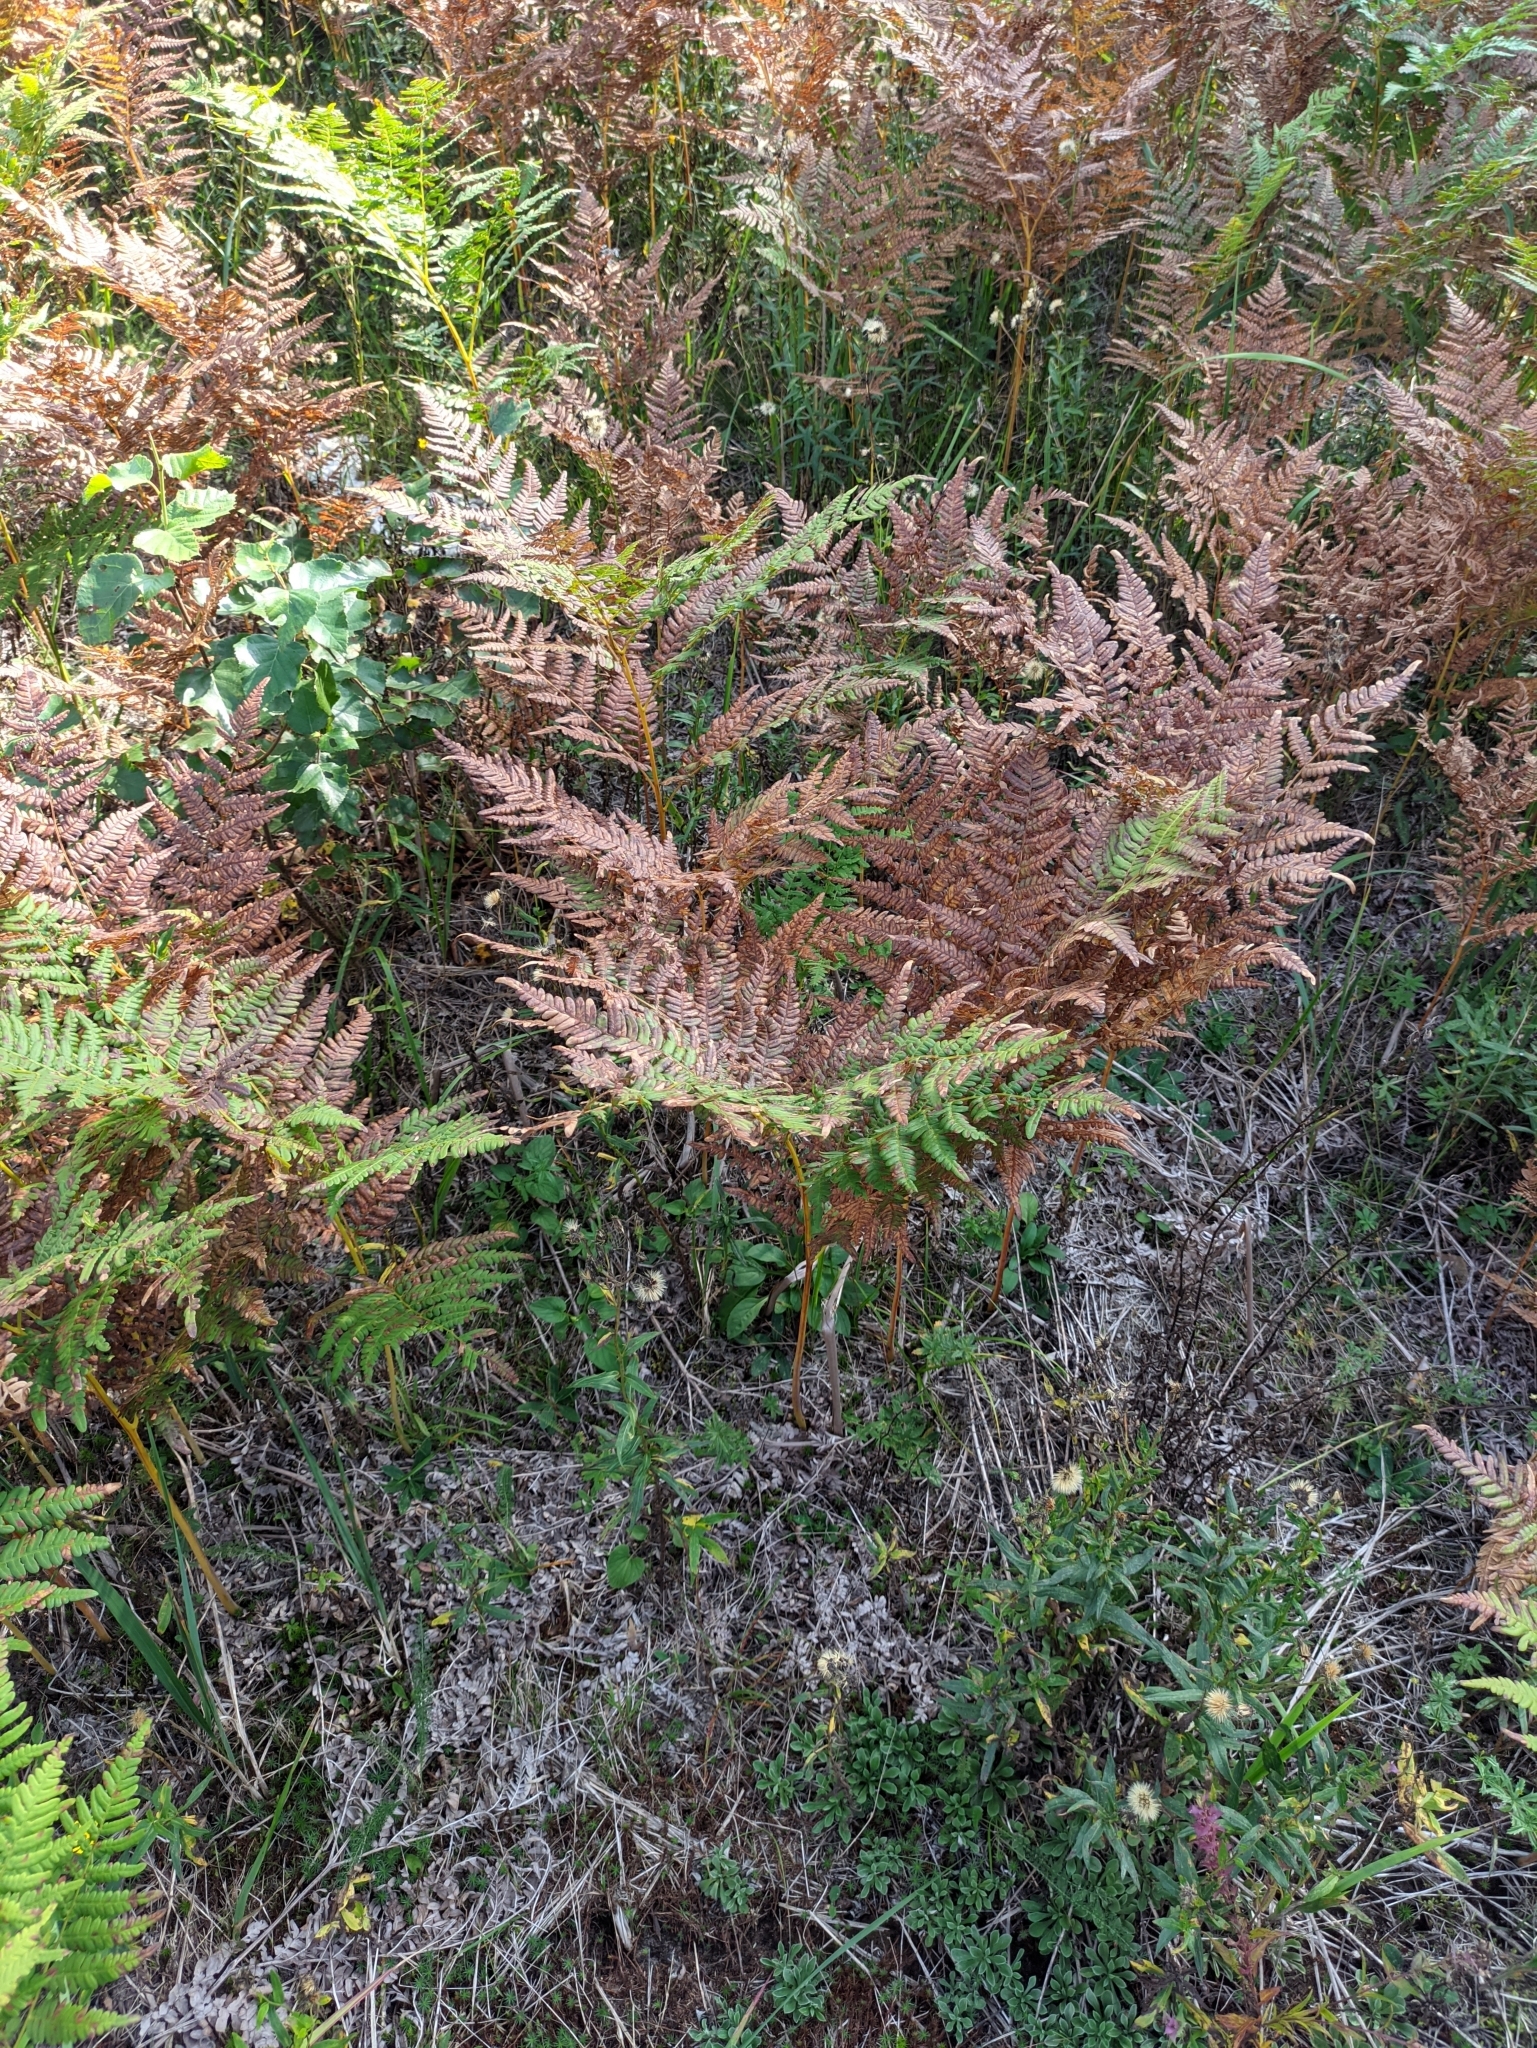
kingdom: Plantae
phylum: Tracheophyta
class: Polypodiopsida
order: Polypodiales
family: Dennstaedtiaceae
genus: Pteridium
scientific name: Pteridium aquilinum
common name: Bracken
